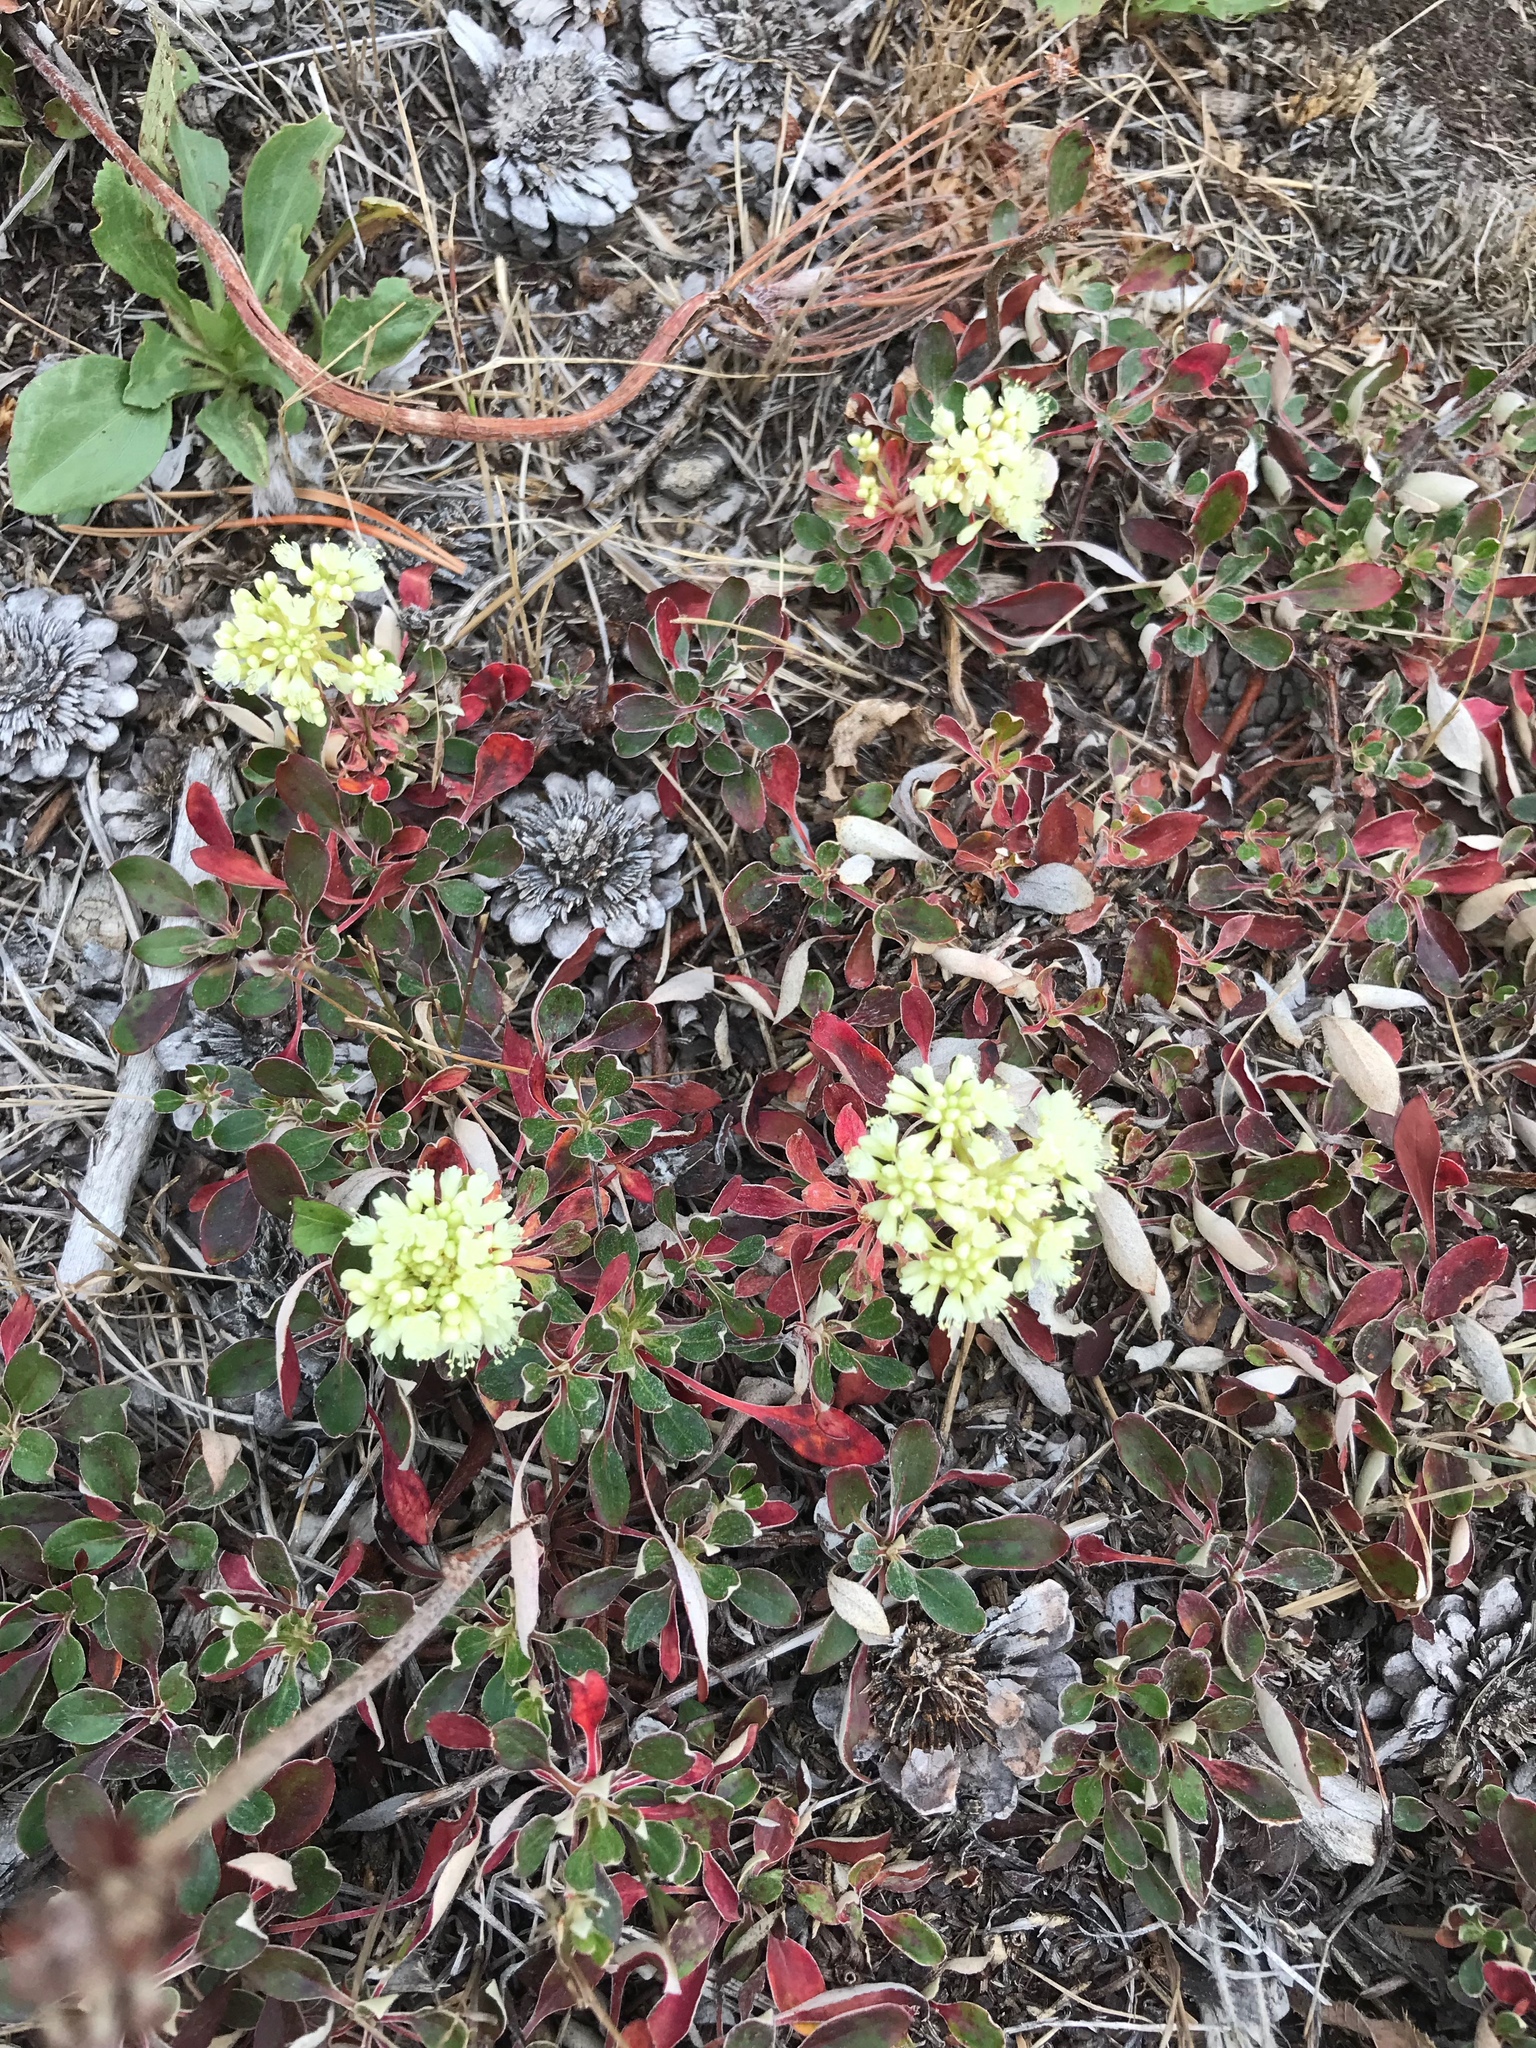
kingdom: Plantae
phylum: Tracheophyta
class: Magnoliopsida
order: Caryophyllales
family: Polygonaceae
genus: Eriogonum
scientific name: Eriogonum umbellatum
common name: Sulfur-buckwheat
